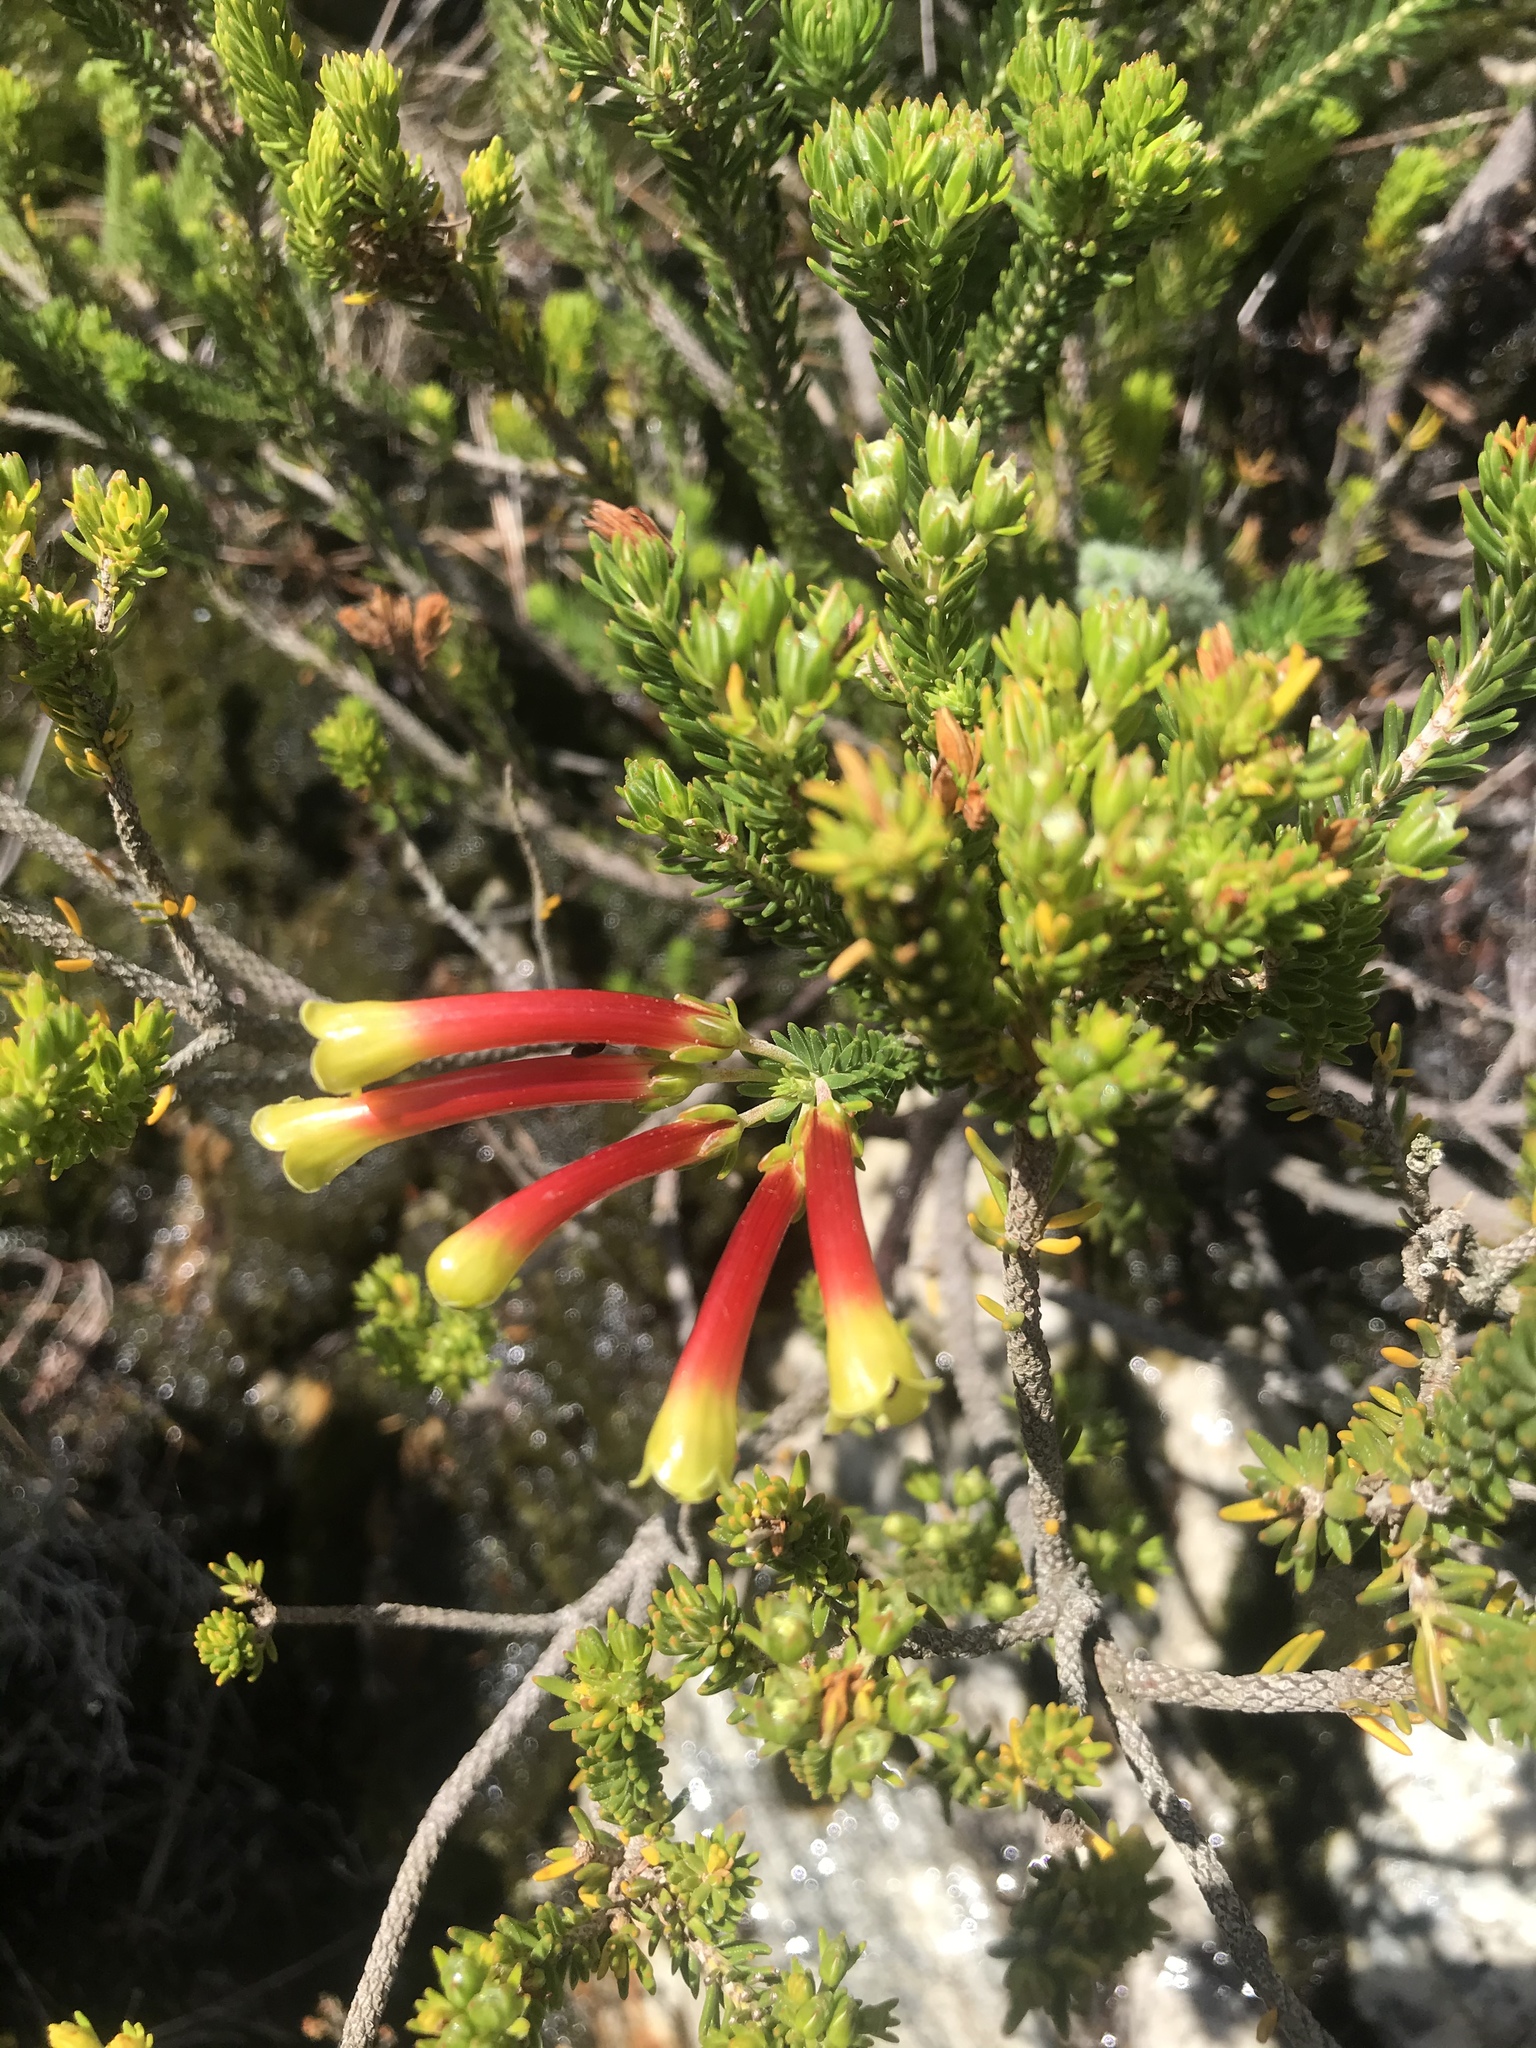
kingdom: Plantae
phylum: Tracheophyta
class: Magnoliopsida
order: Ericales
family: Ericaceae
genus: Erica
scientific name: Erica hibbertia
